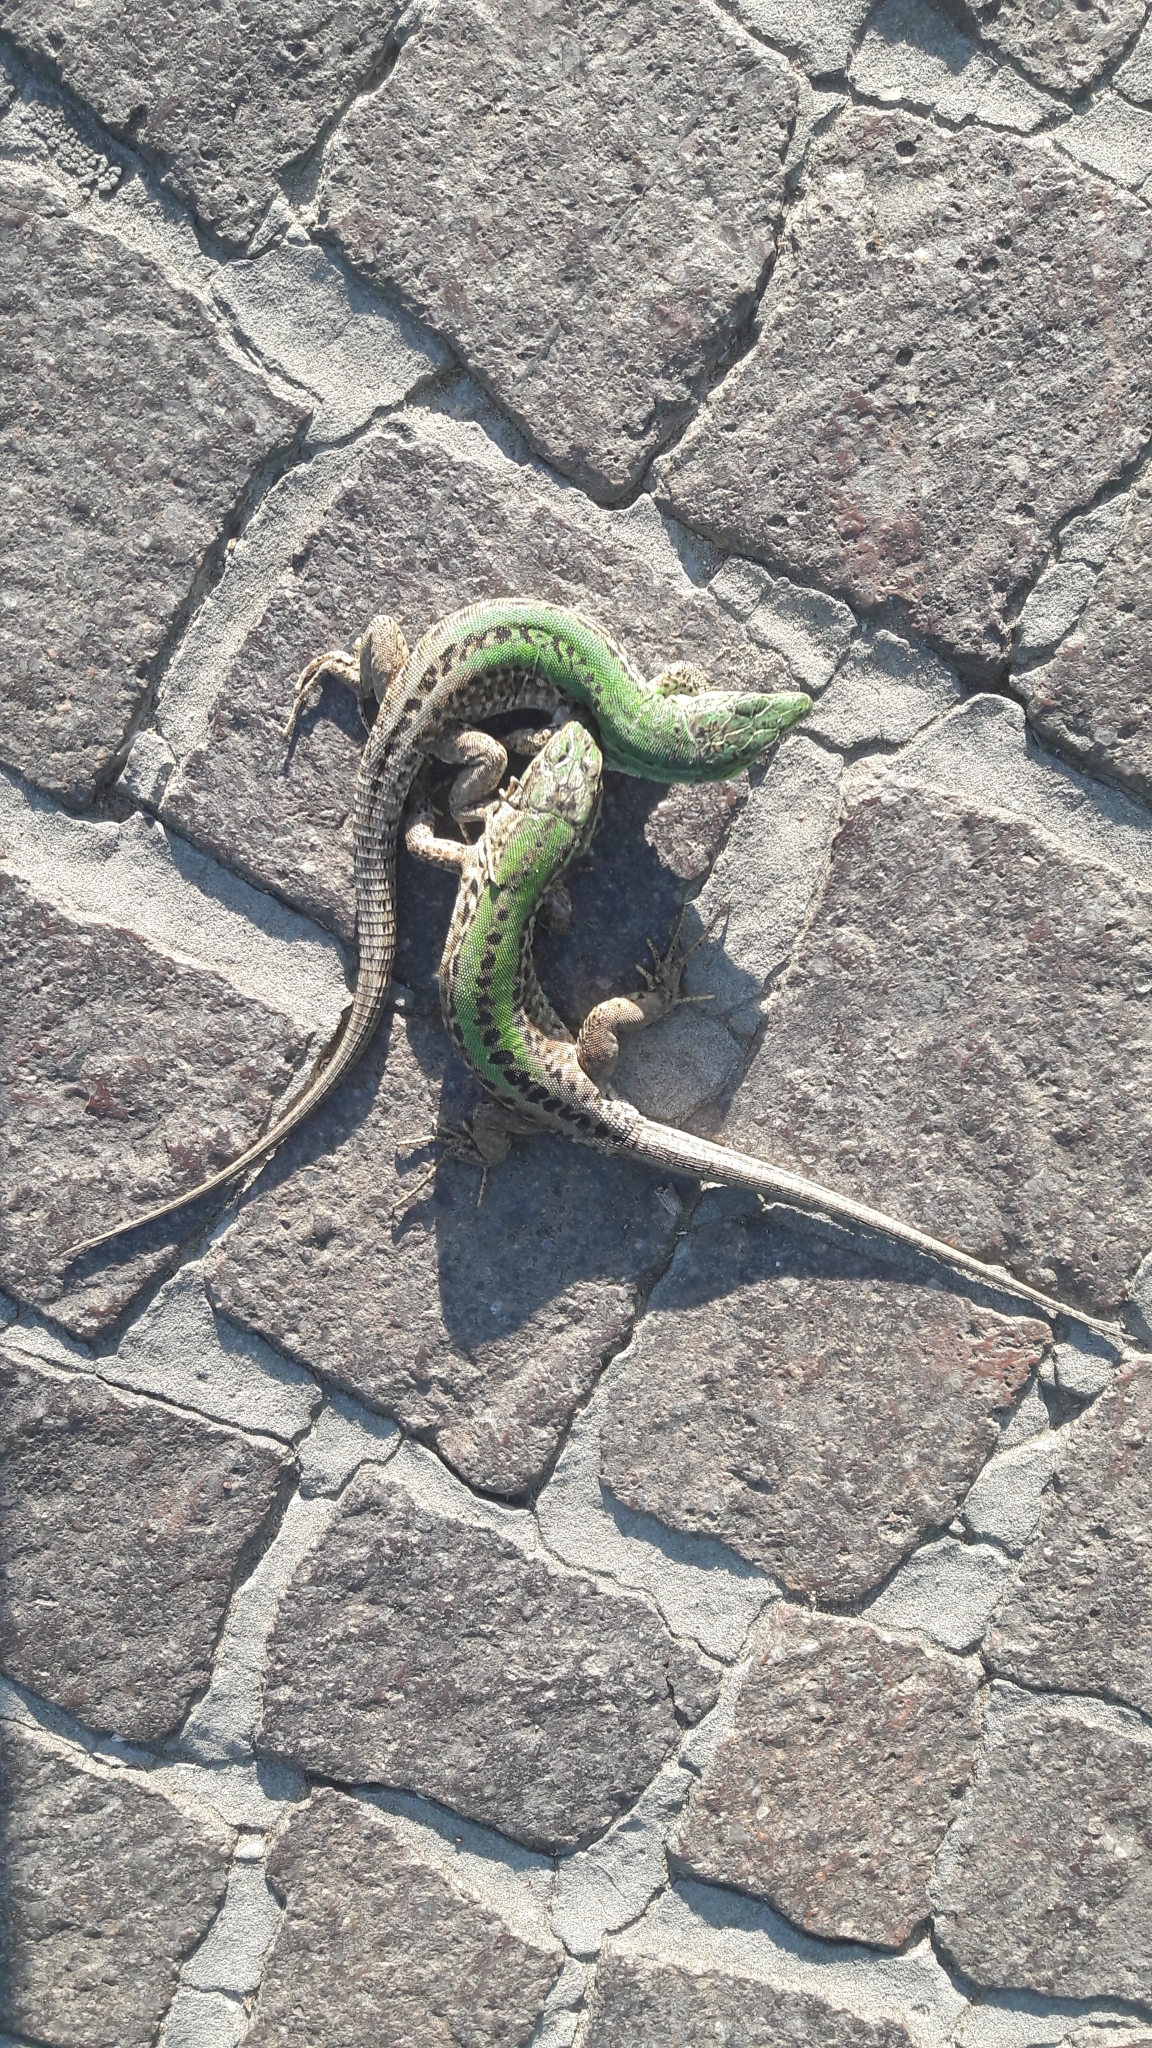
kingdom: Animalia
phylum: Chordata
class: Squamata
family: Lacertidae
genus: Podarcis
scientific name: Podarcis siculus
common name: Italian wall lizard
